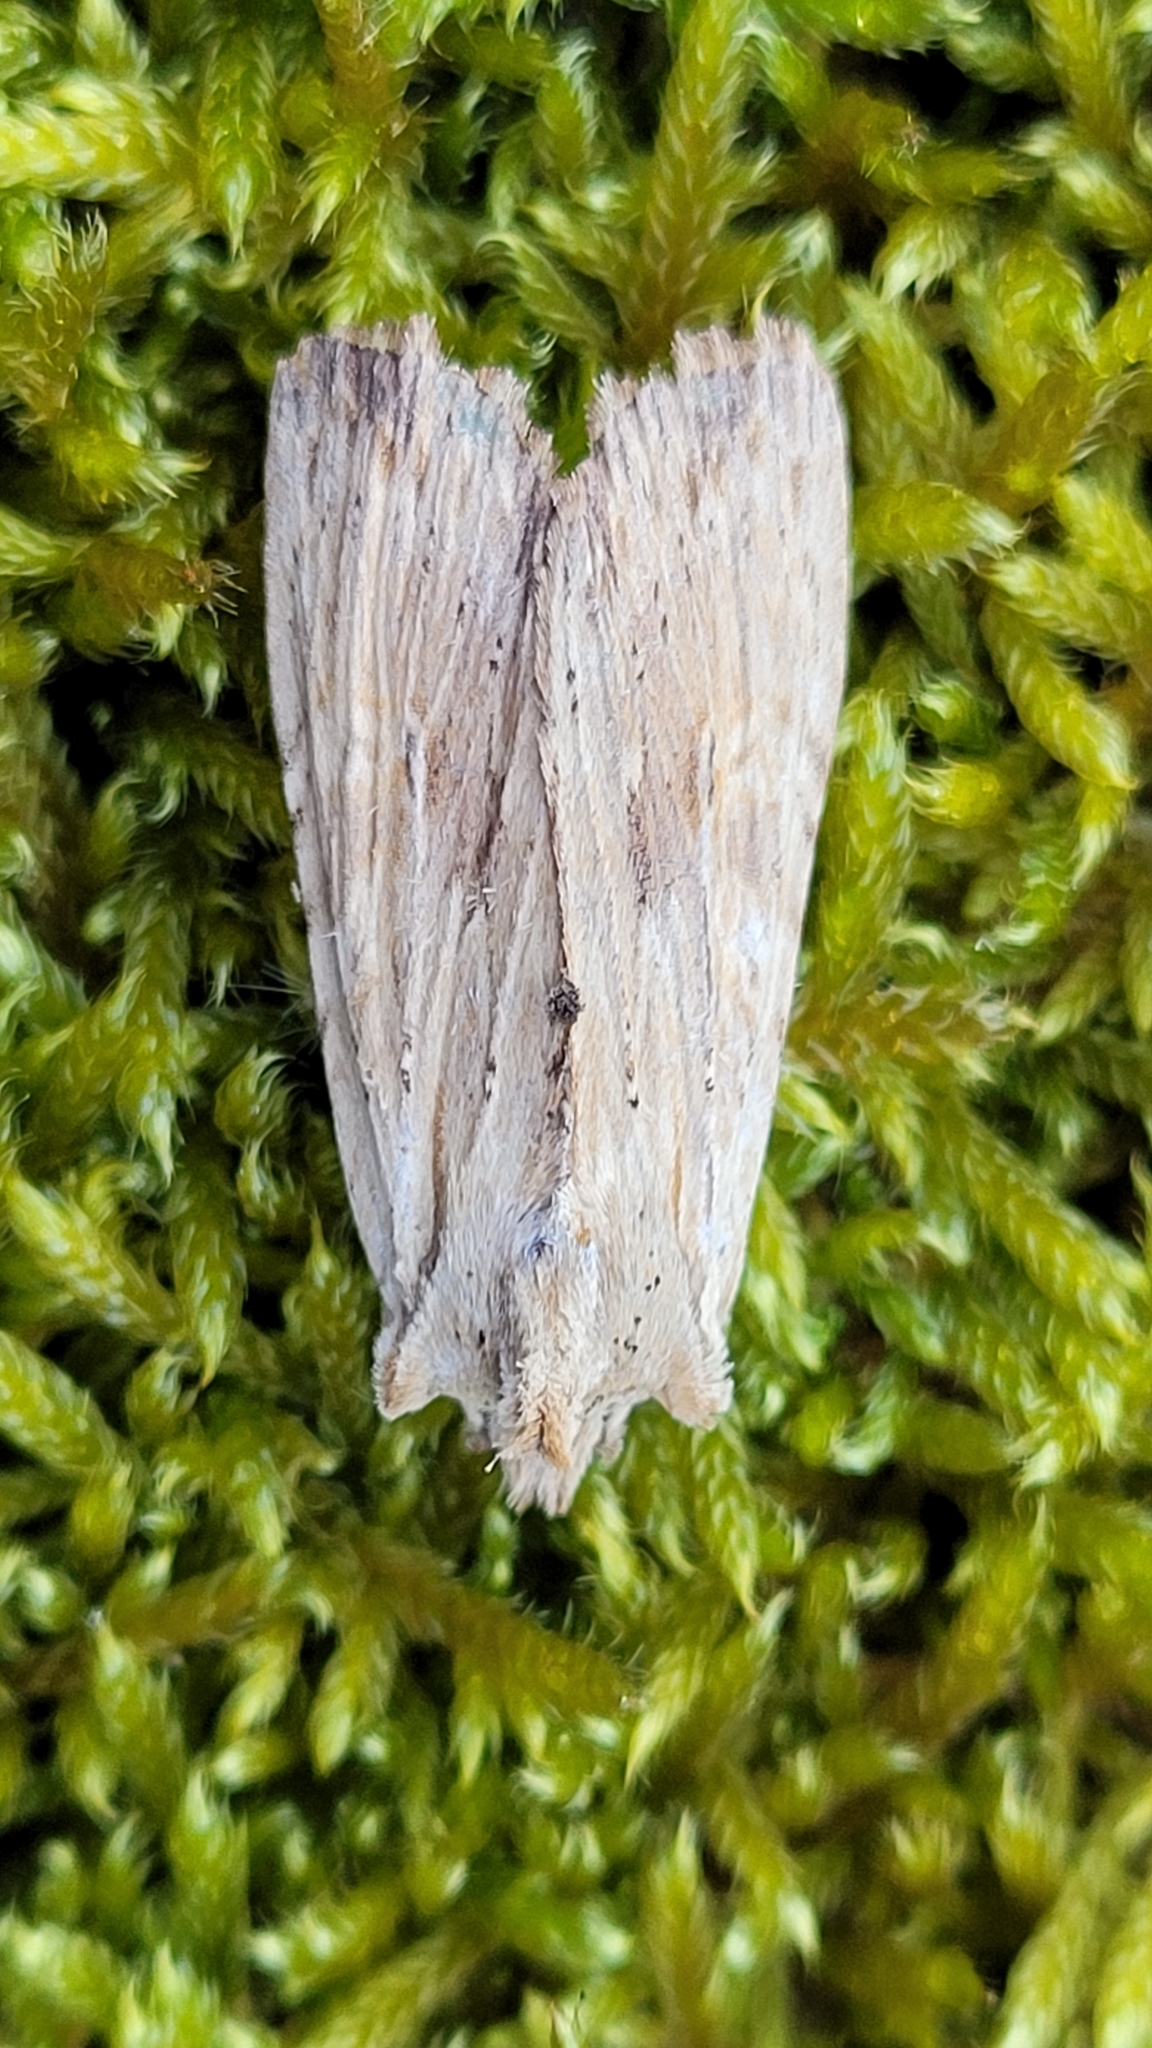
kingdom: Animalia
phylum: Arthropoda
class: Insecta
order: Lepidoptera
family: Noctuidae
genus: Lithophane
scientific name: Lithophane socia
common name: Pale pinion
